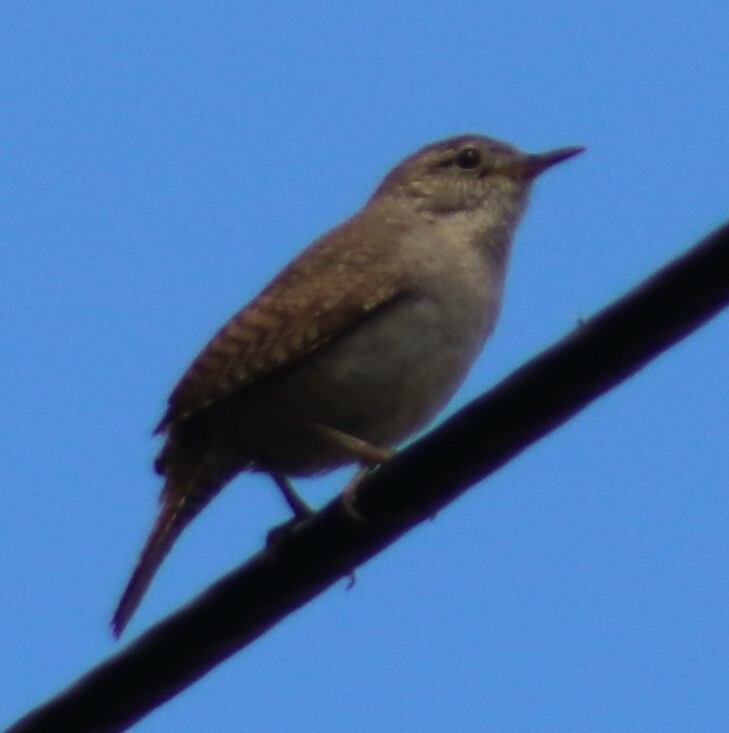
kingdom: Animalia
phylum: Chordata
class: Aves
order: Passeriformes
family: Troglodytidae
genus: Troglodytes
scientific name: Troglodytes aedon
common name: House wren
